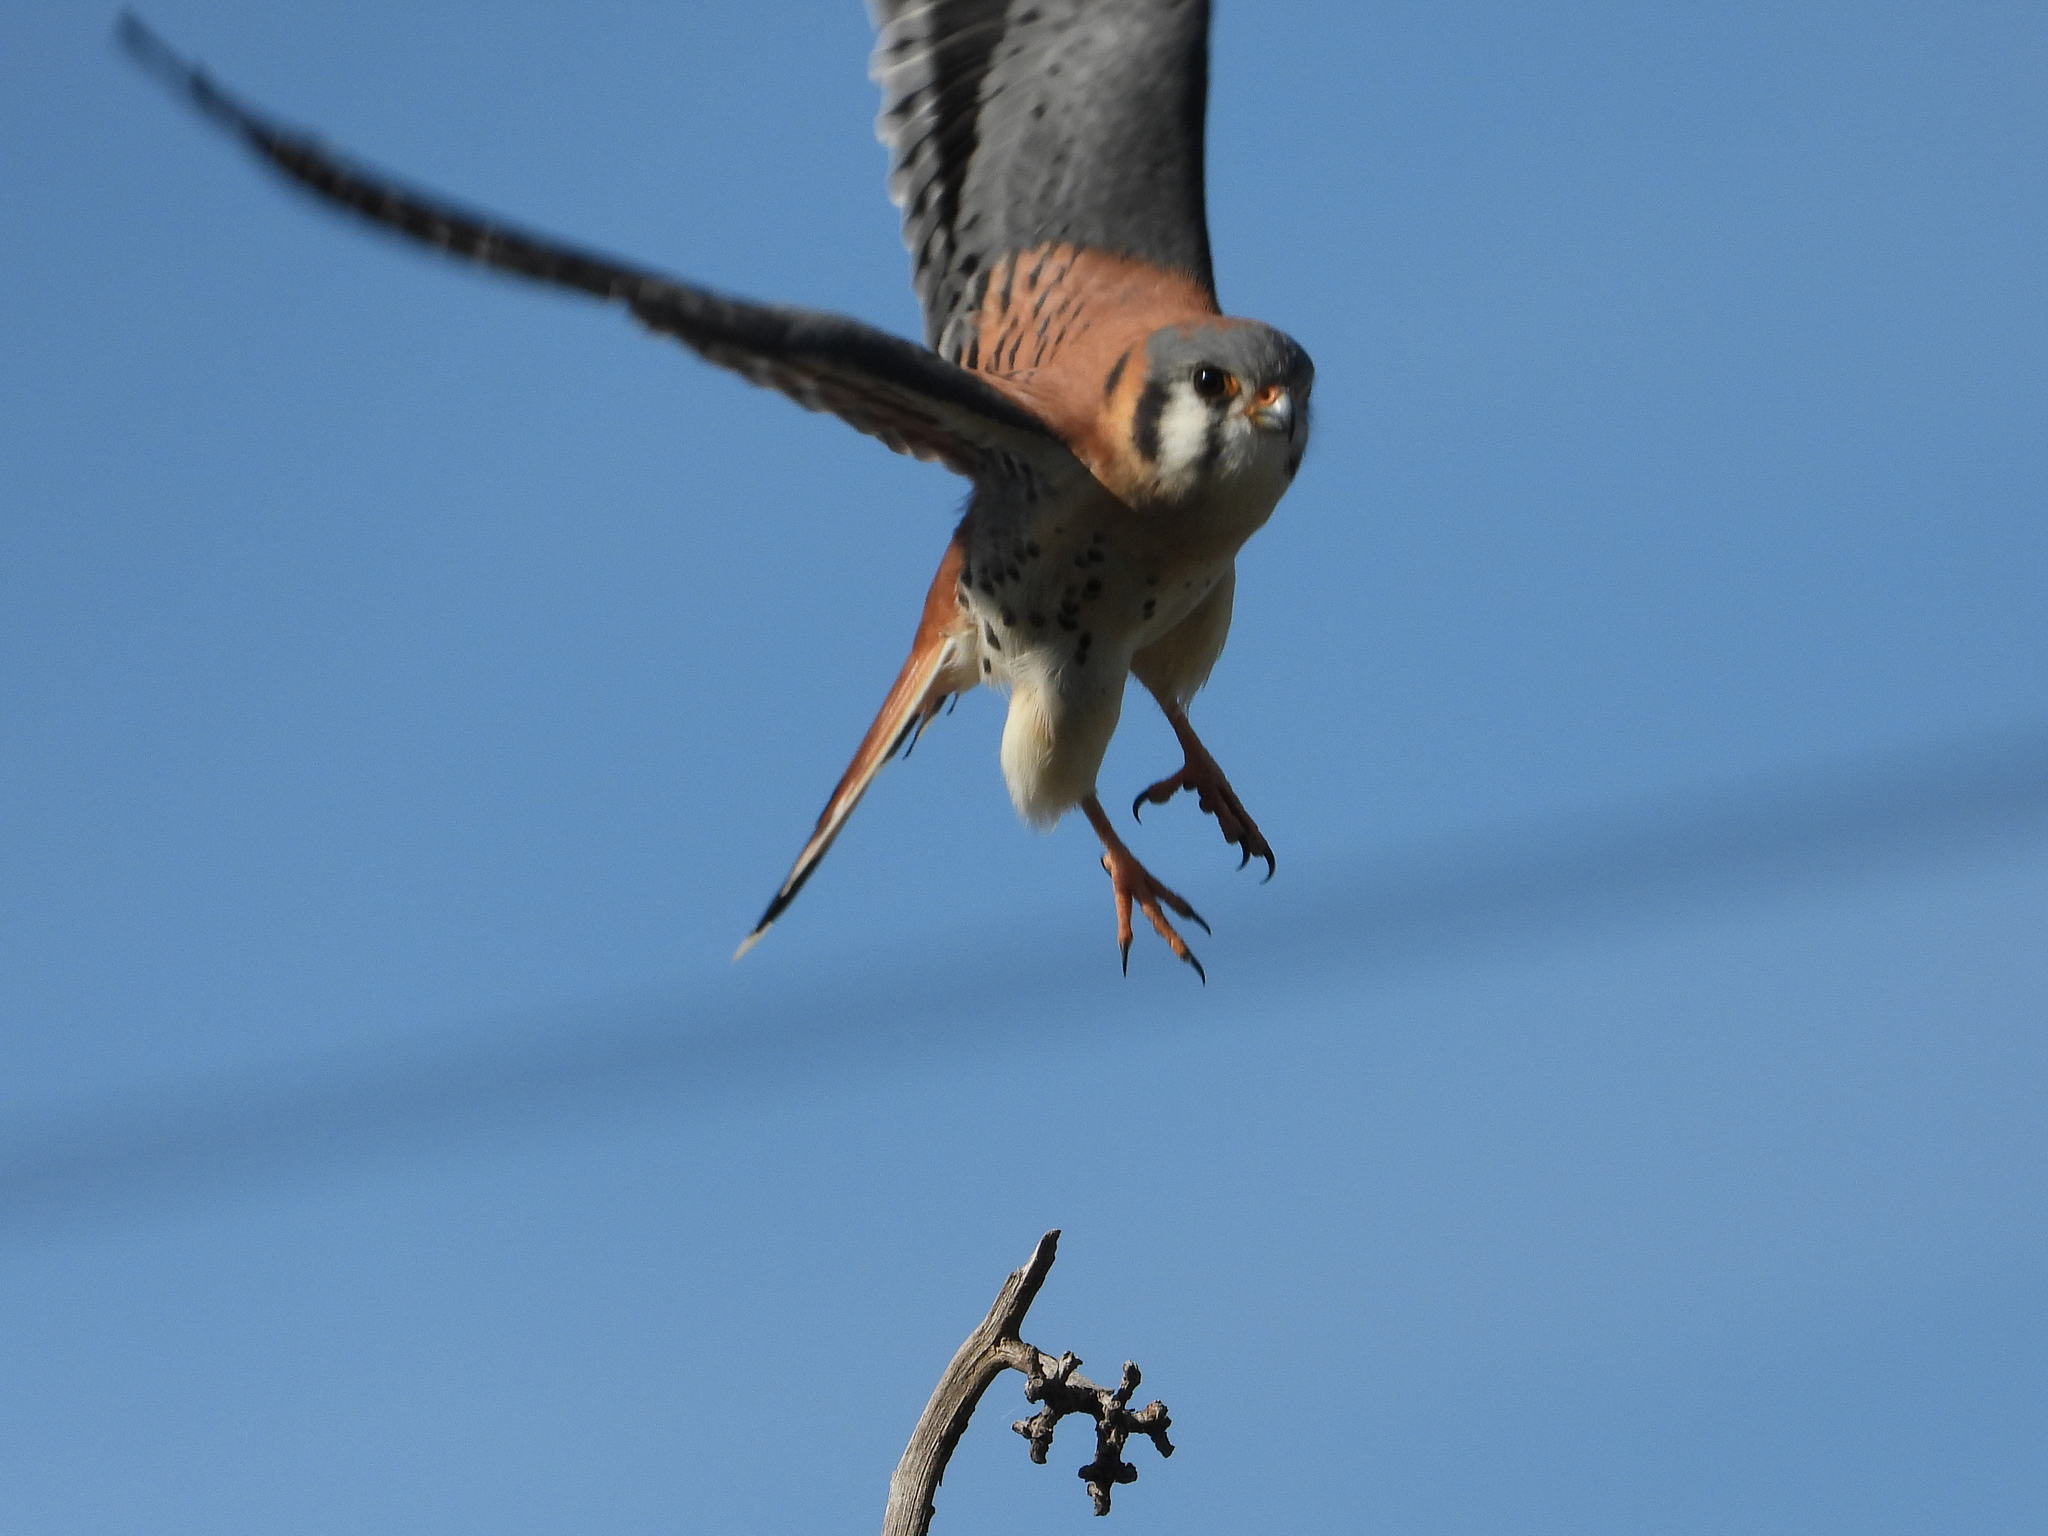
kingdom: Animalia
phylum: Chordata
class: Aves
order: Falconiformes
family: Falconidae
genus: Falco
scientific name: Falco sparverius
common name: American kestrel
